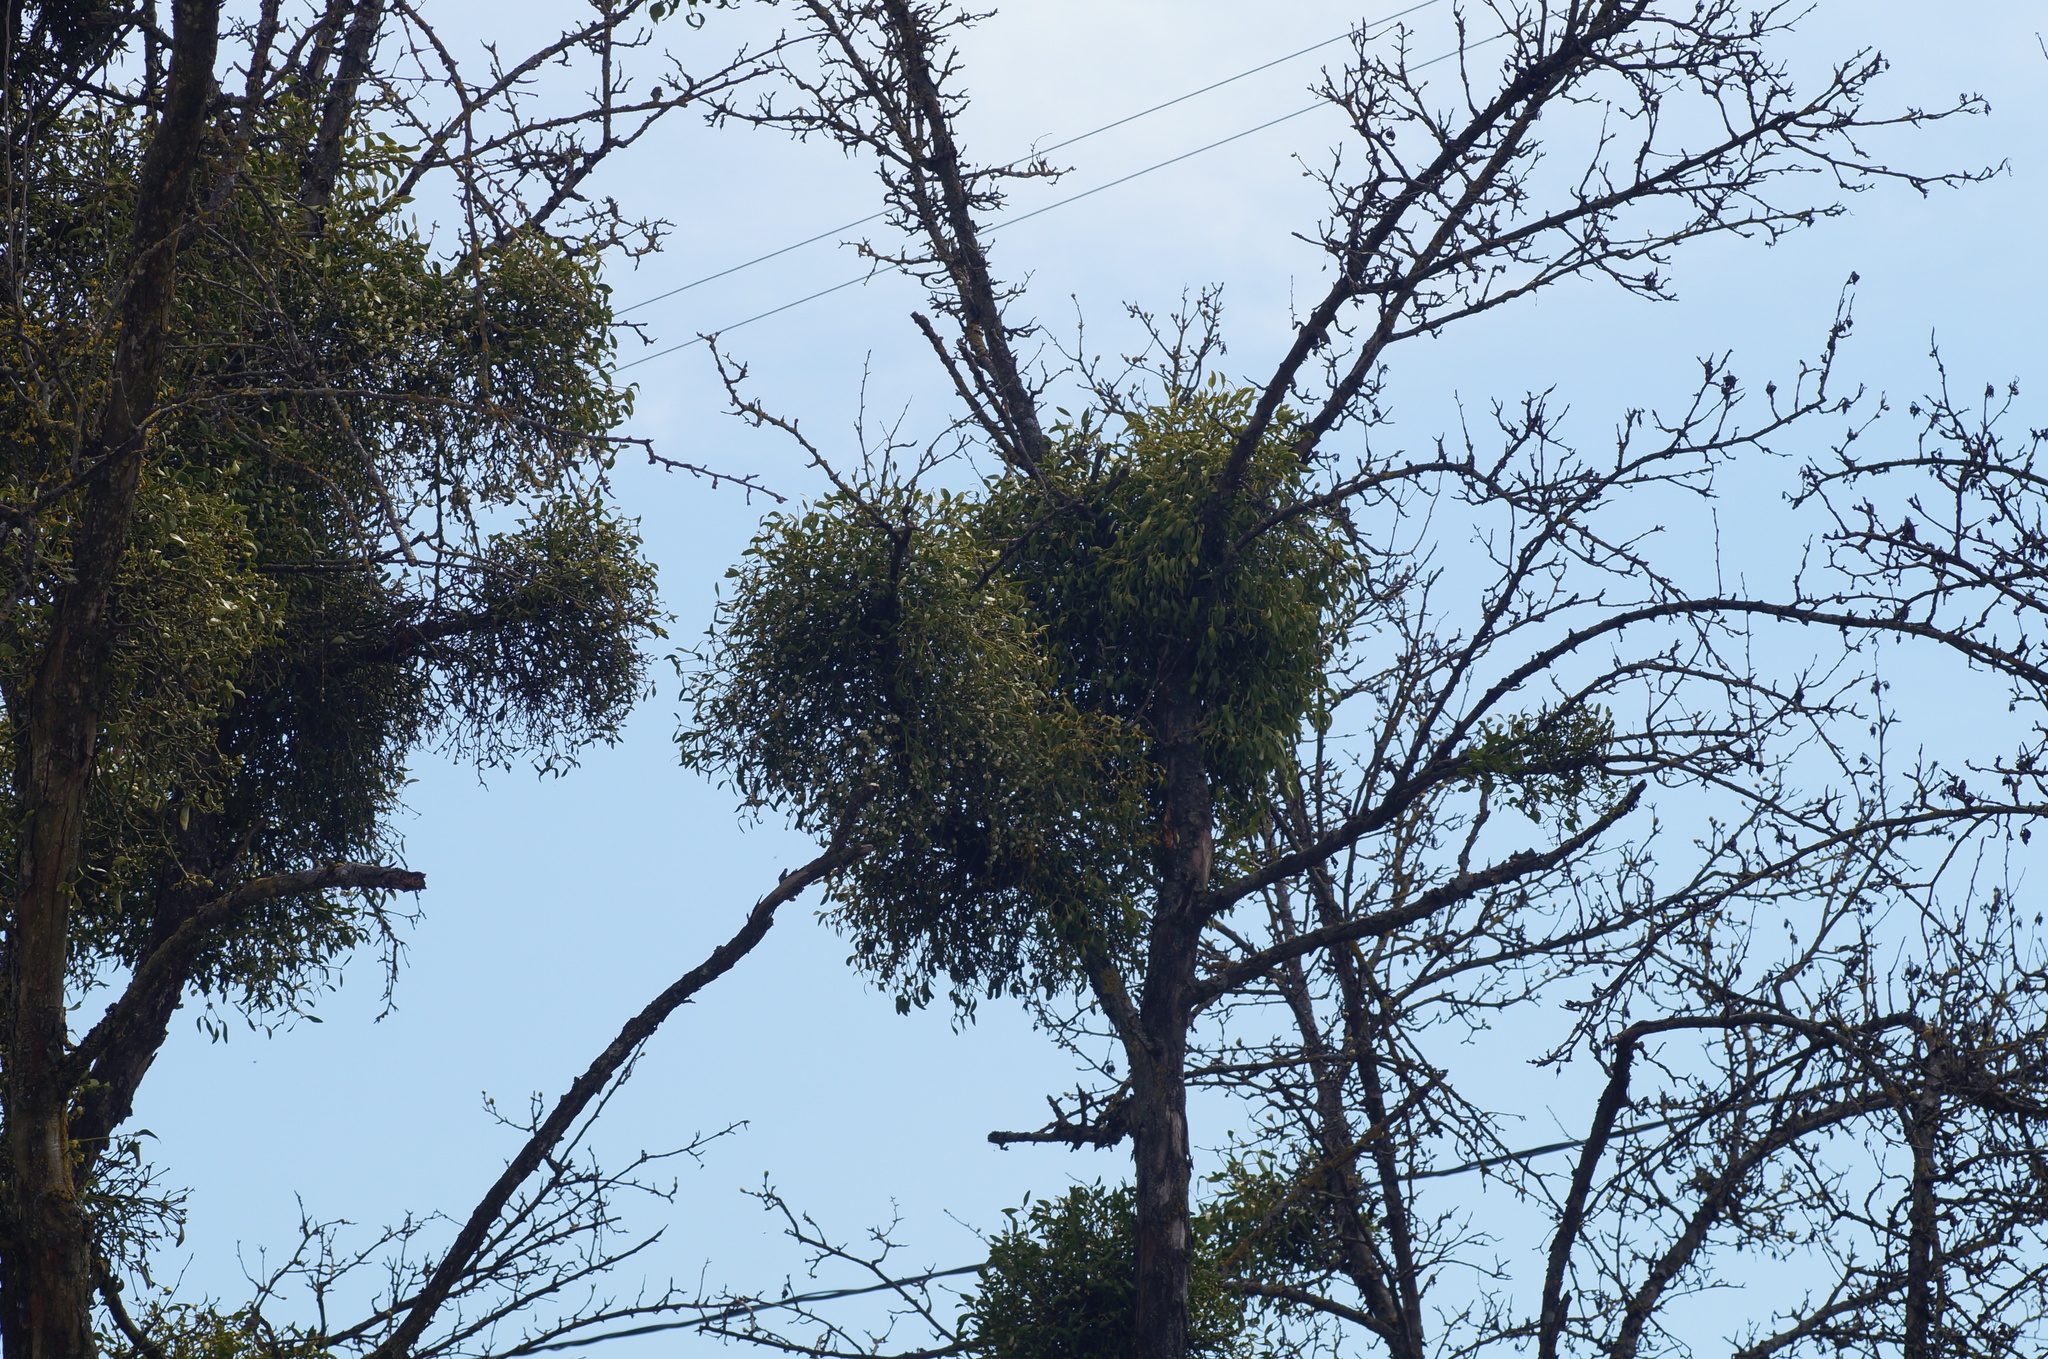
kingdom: Plantae
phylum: Tracheophyta
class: Magnoliopsida
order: Santalales
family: Viscaceae
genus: Viscum
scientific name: Viscum album
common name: Mistletoe
